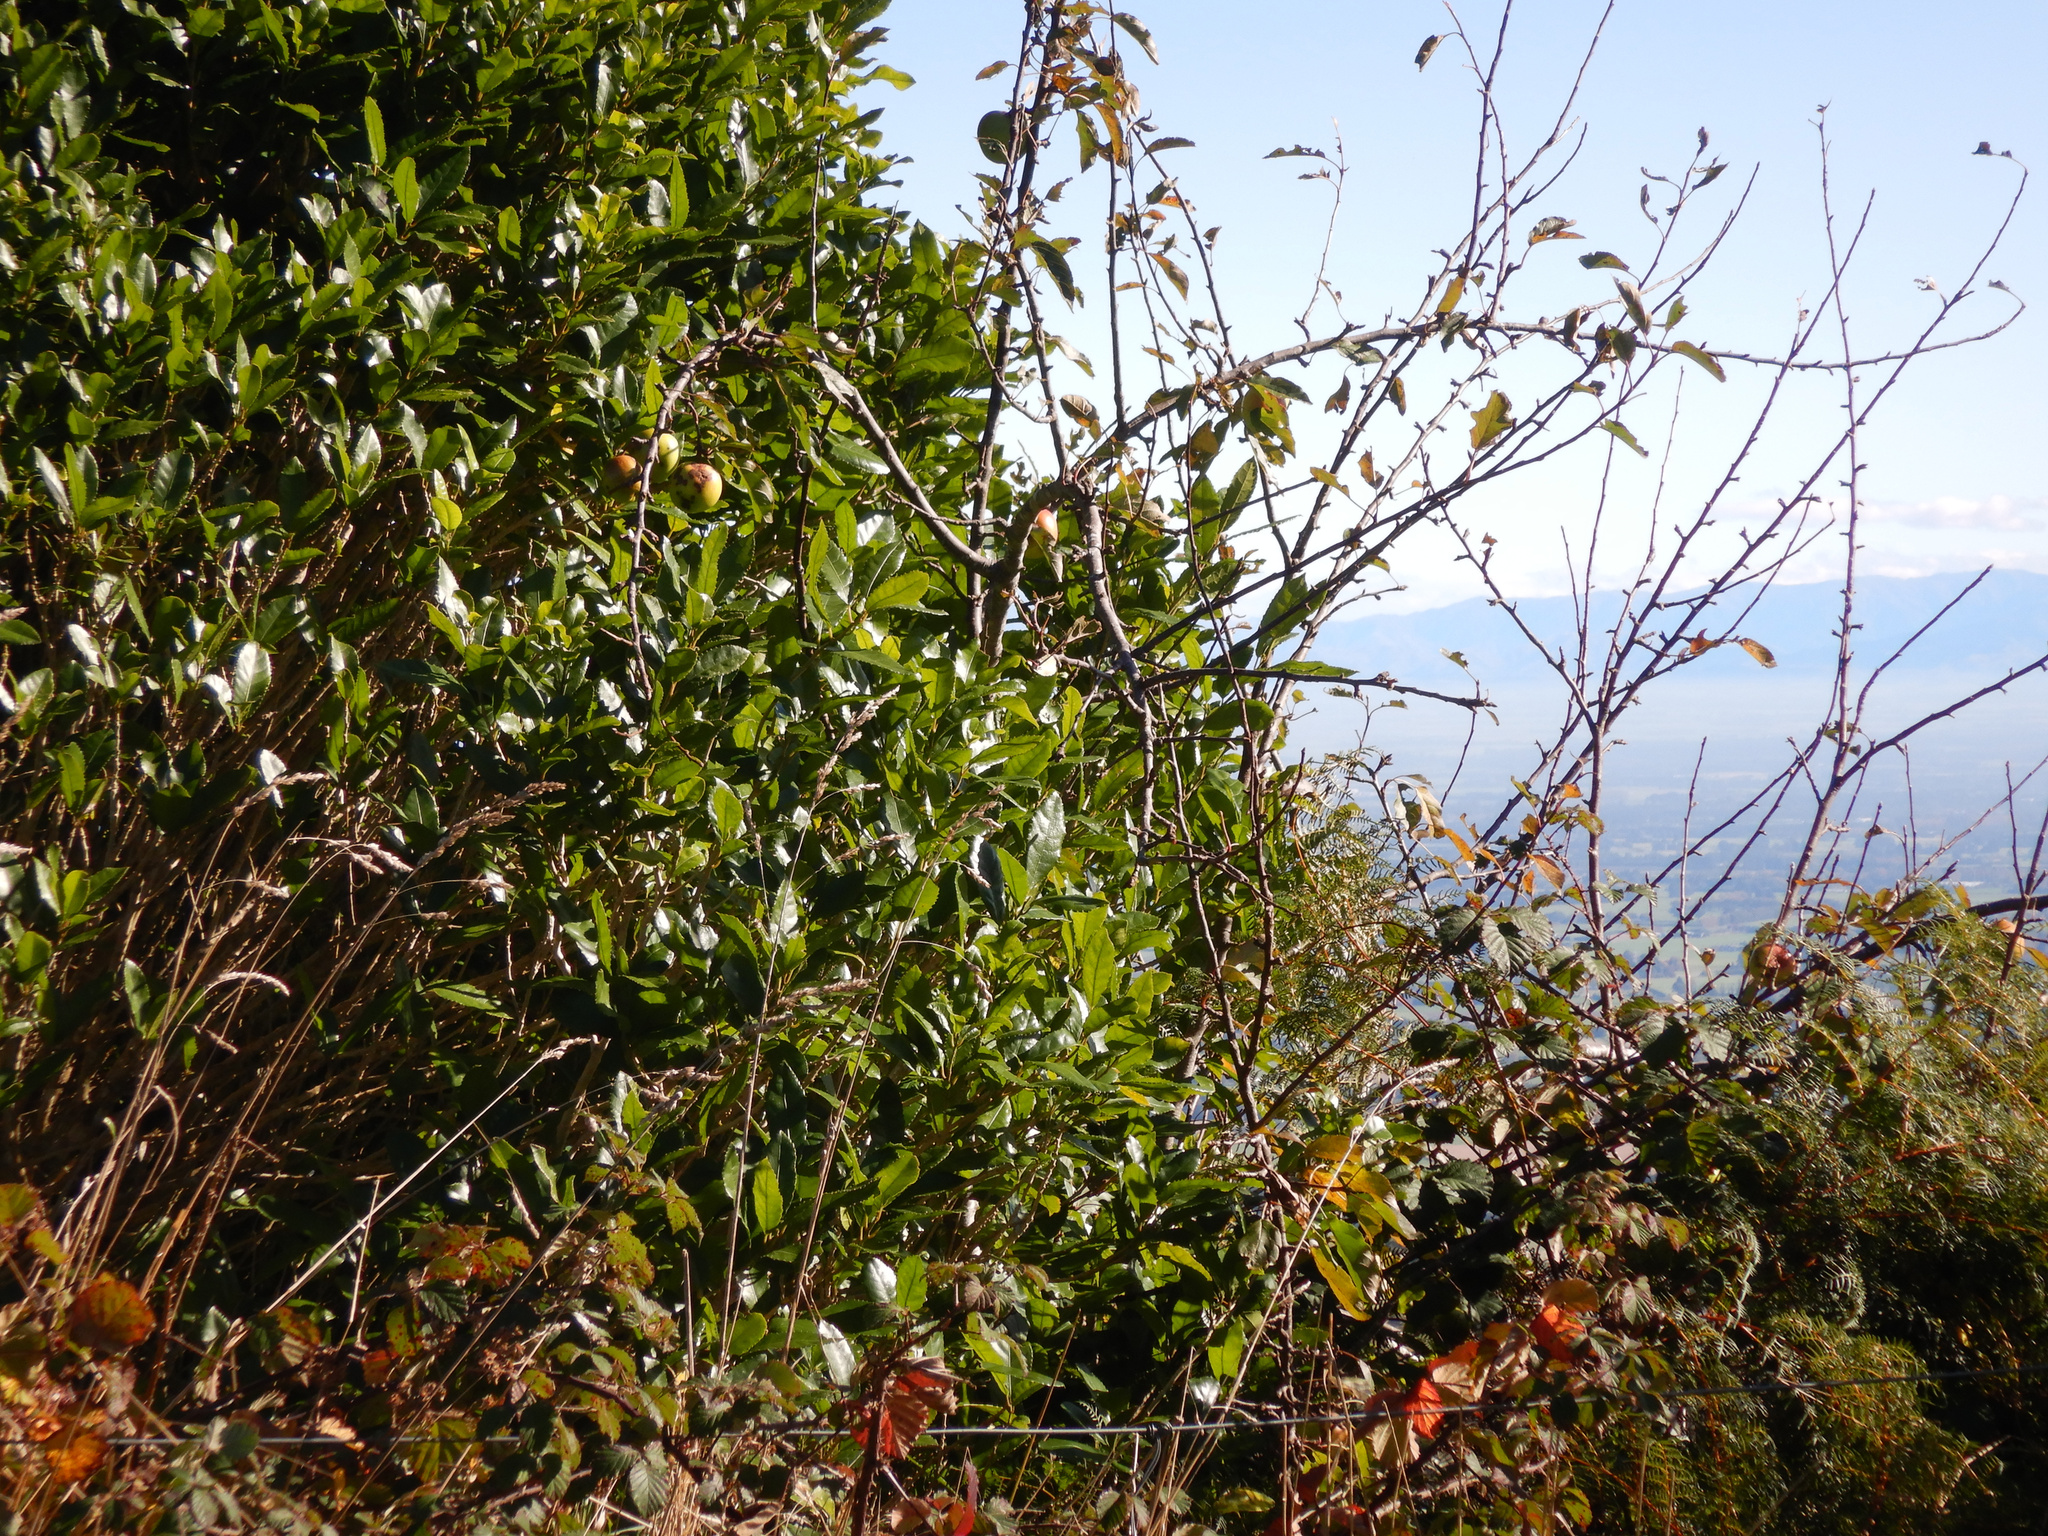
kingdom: Plantae
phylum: Tracheophyta
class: Magnoliopsida
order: Rosales
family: Rosaceae
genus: Malus
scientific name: Malus domestica
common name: Apple
